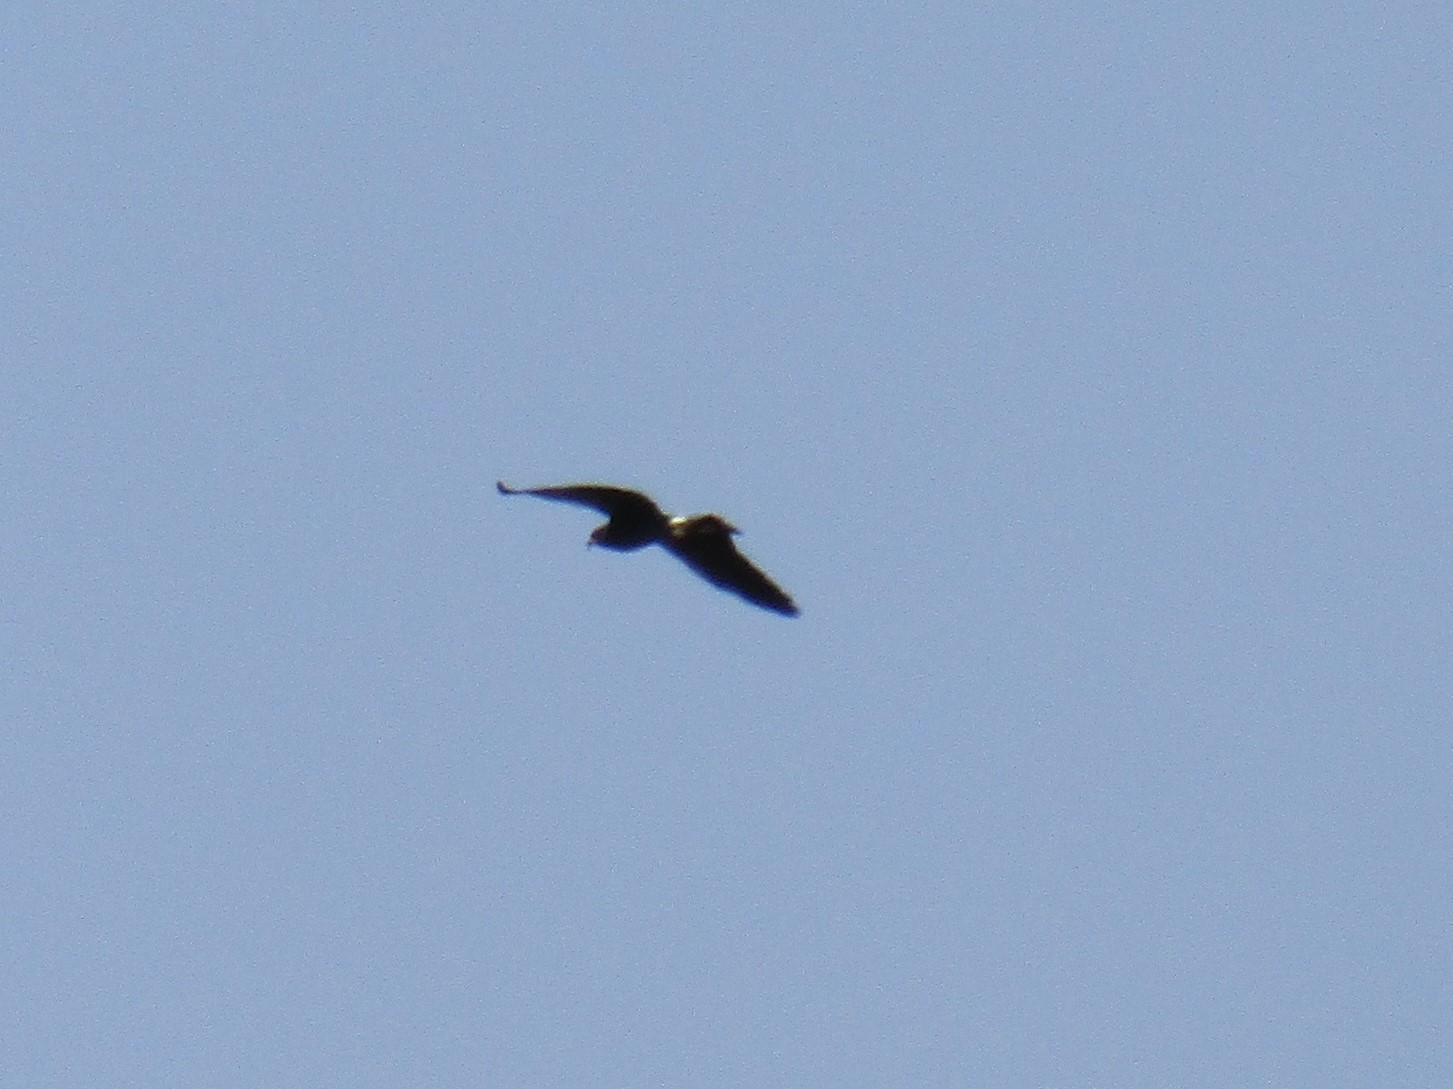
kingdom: Animalia
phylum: Chordata
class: Aves
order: Accipitriformes
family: Accipitridae
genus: Rostrhamus
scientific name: Rostrhamus sociabilis
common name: Snail kite
